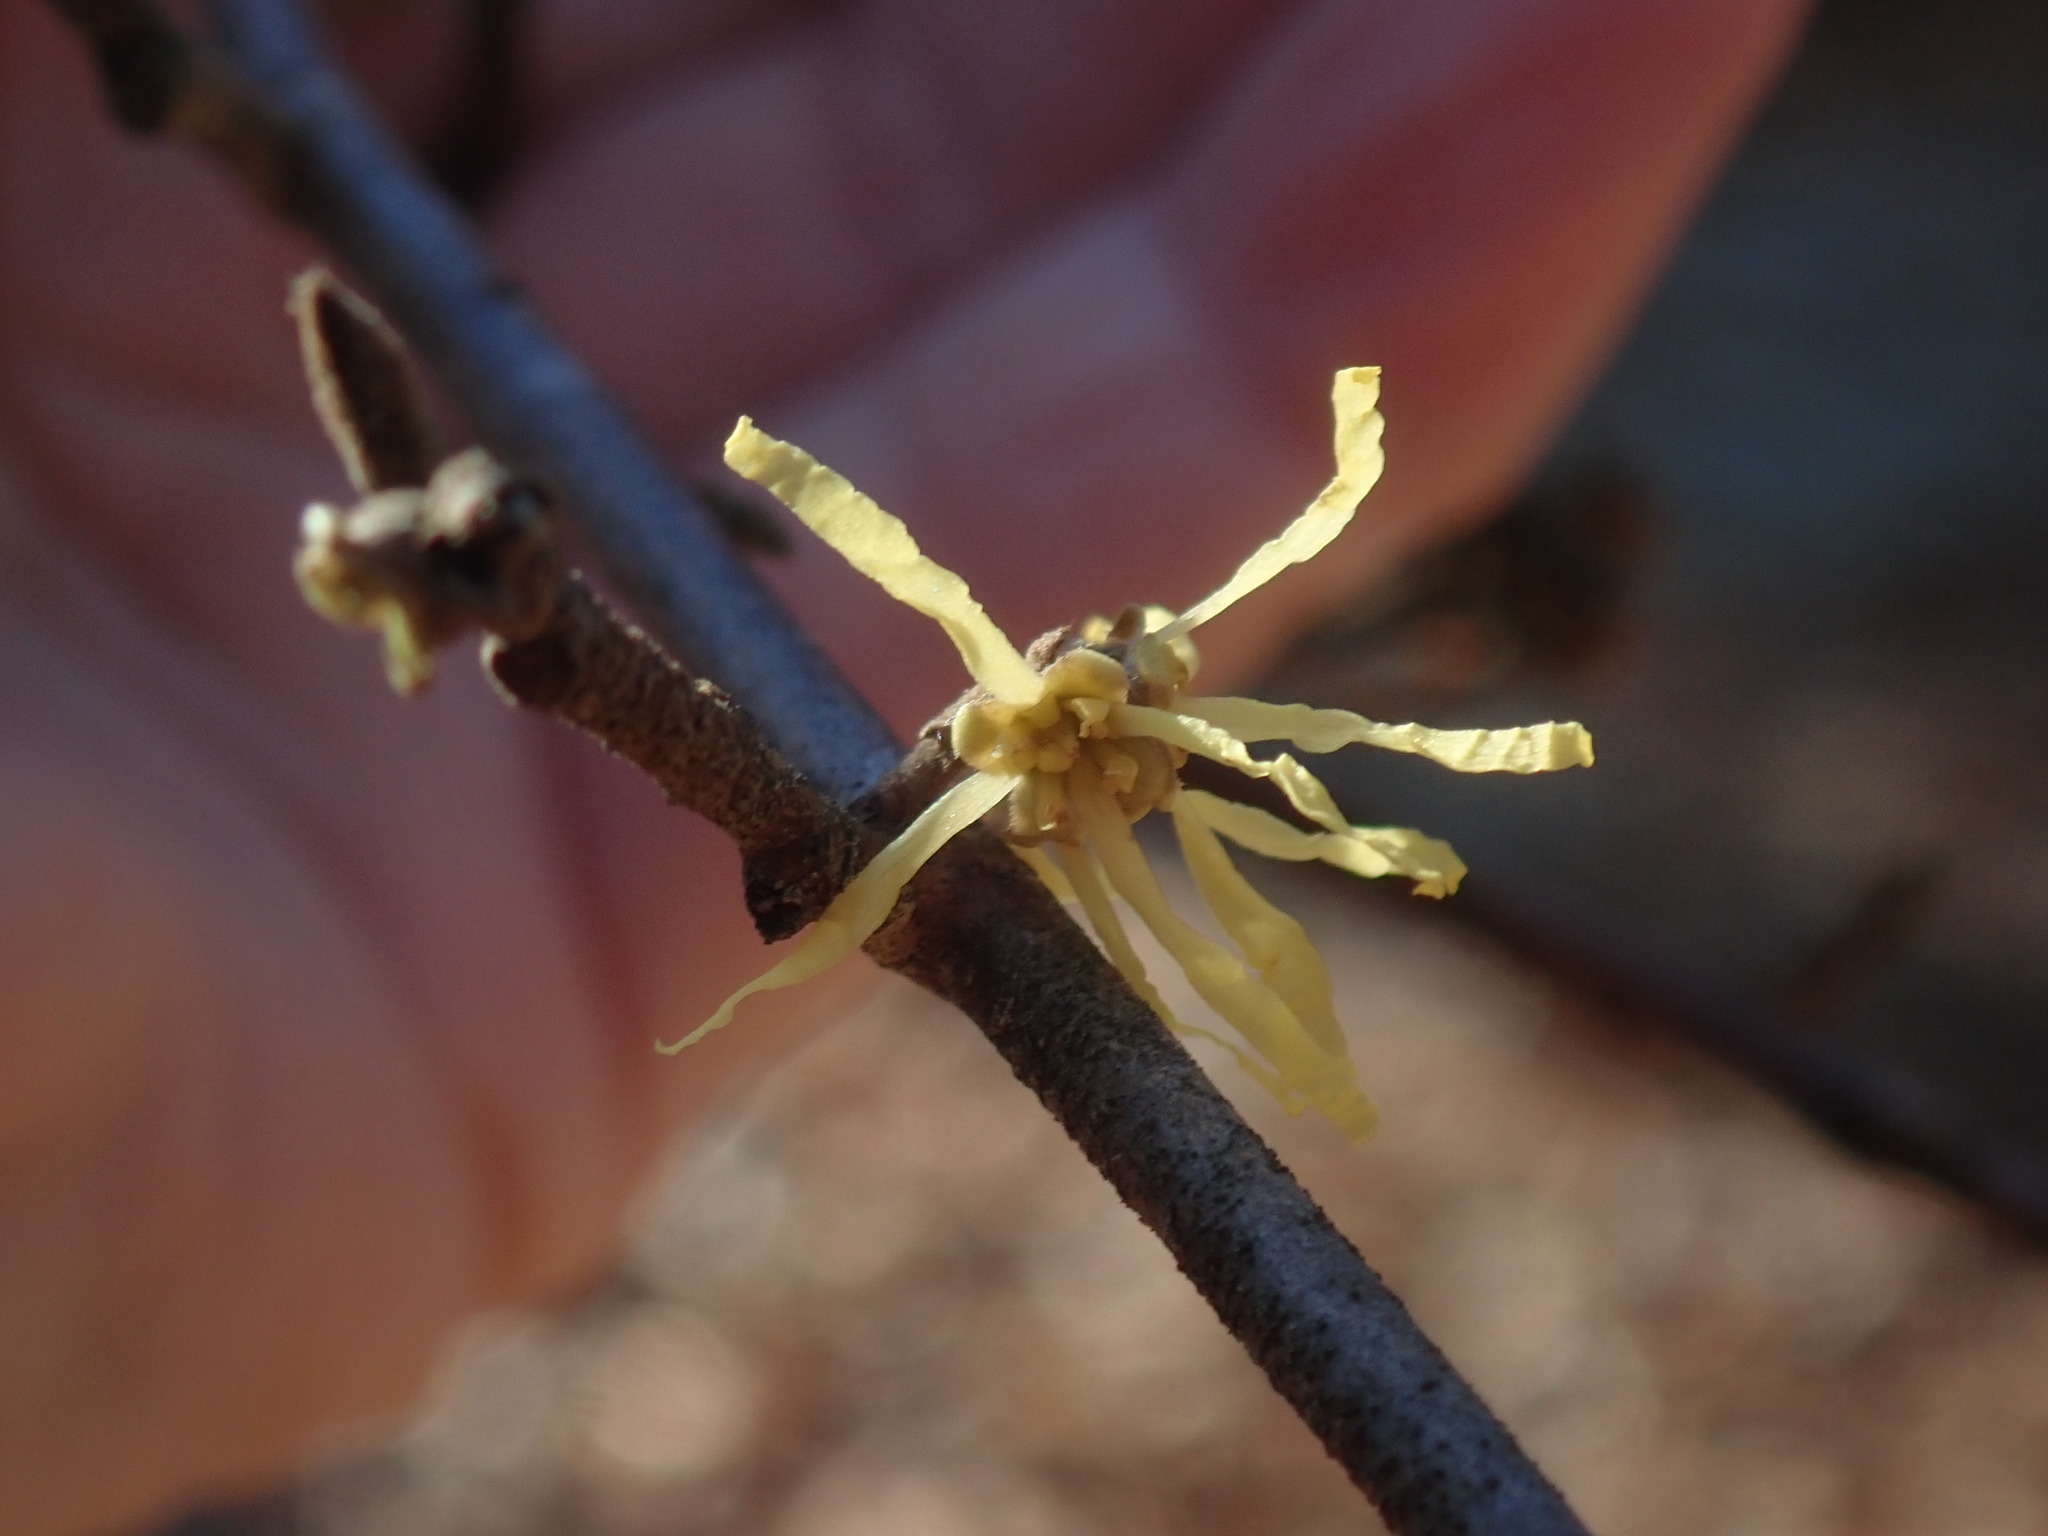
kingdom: Plantae
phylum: Tracheophyta
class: Magnoliopsida
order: Saxifragales
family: Hamamelidaceae
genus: Hamamelis
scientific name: Hamamelis virginiana
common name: Witch-hazel
